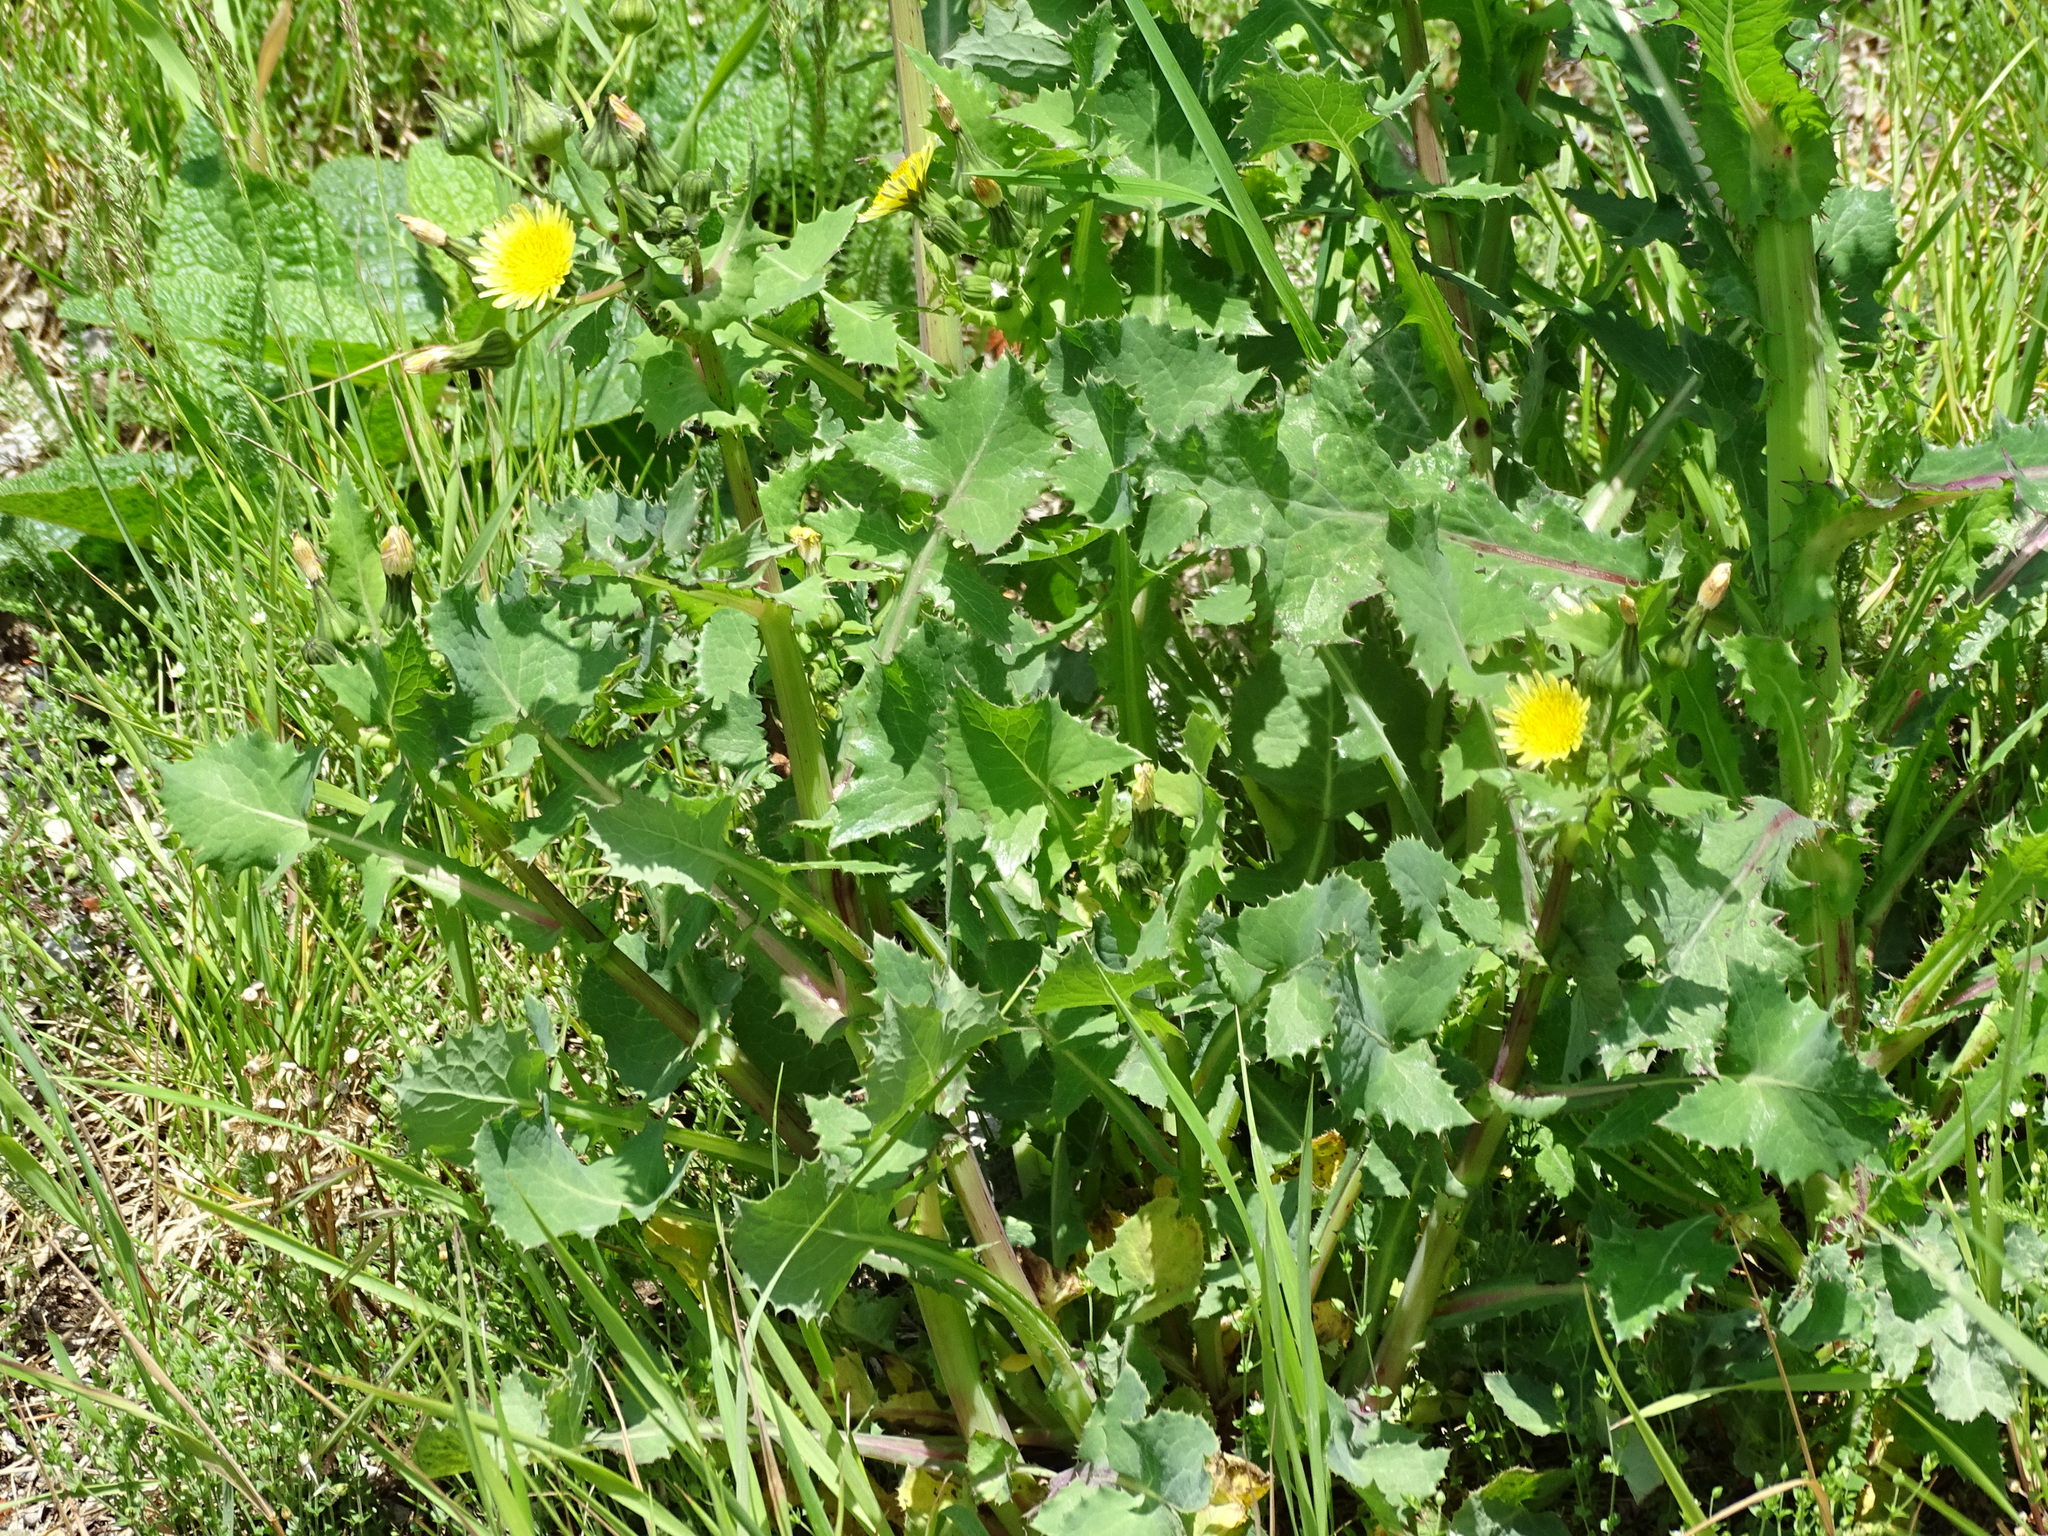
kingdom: Plantae
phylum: Tracheophyta
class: Magnoliopsida
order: Asterales
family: Asteraceae
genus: Sonchus
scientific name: Sonchus oleraceus
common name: Common sowthistle
